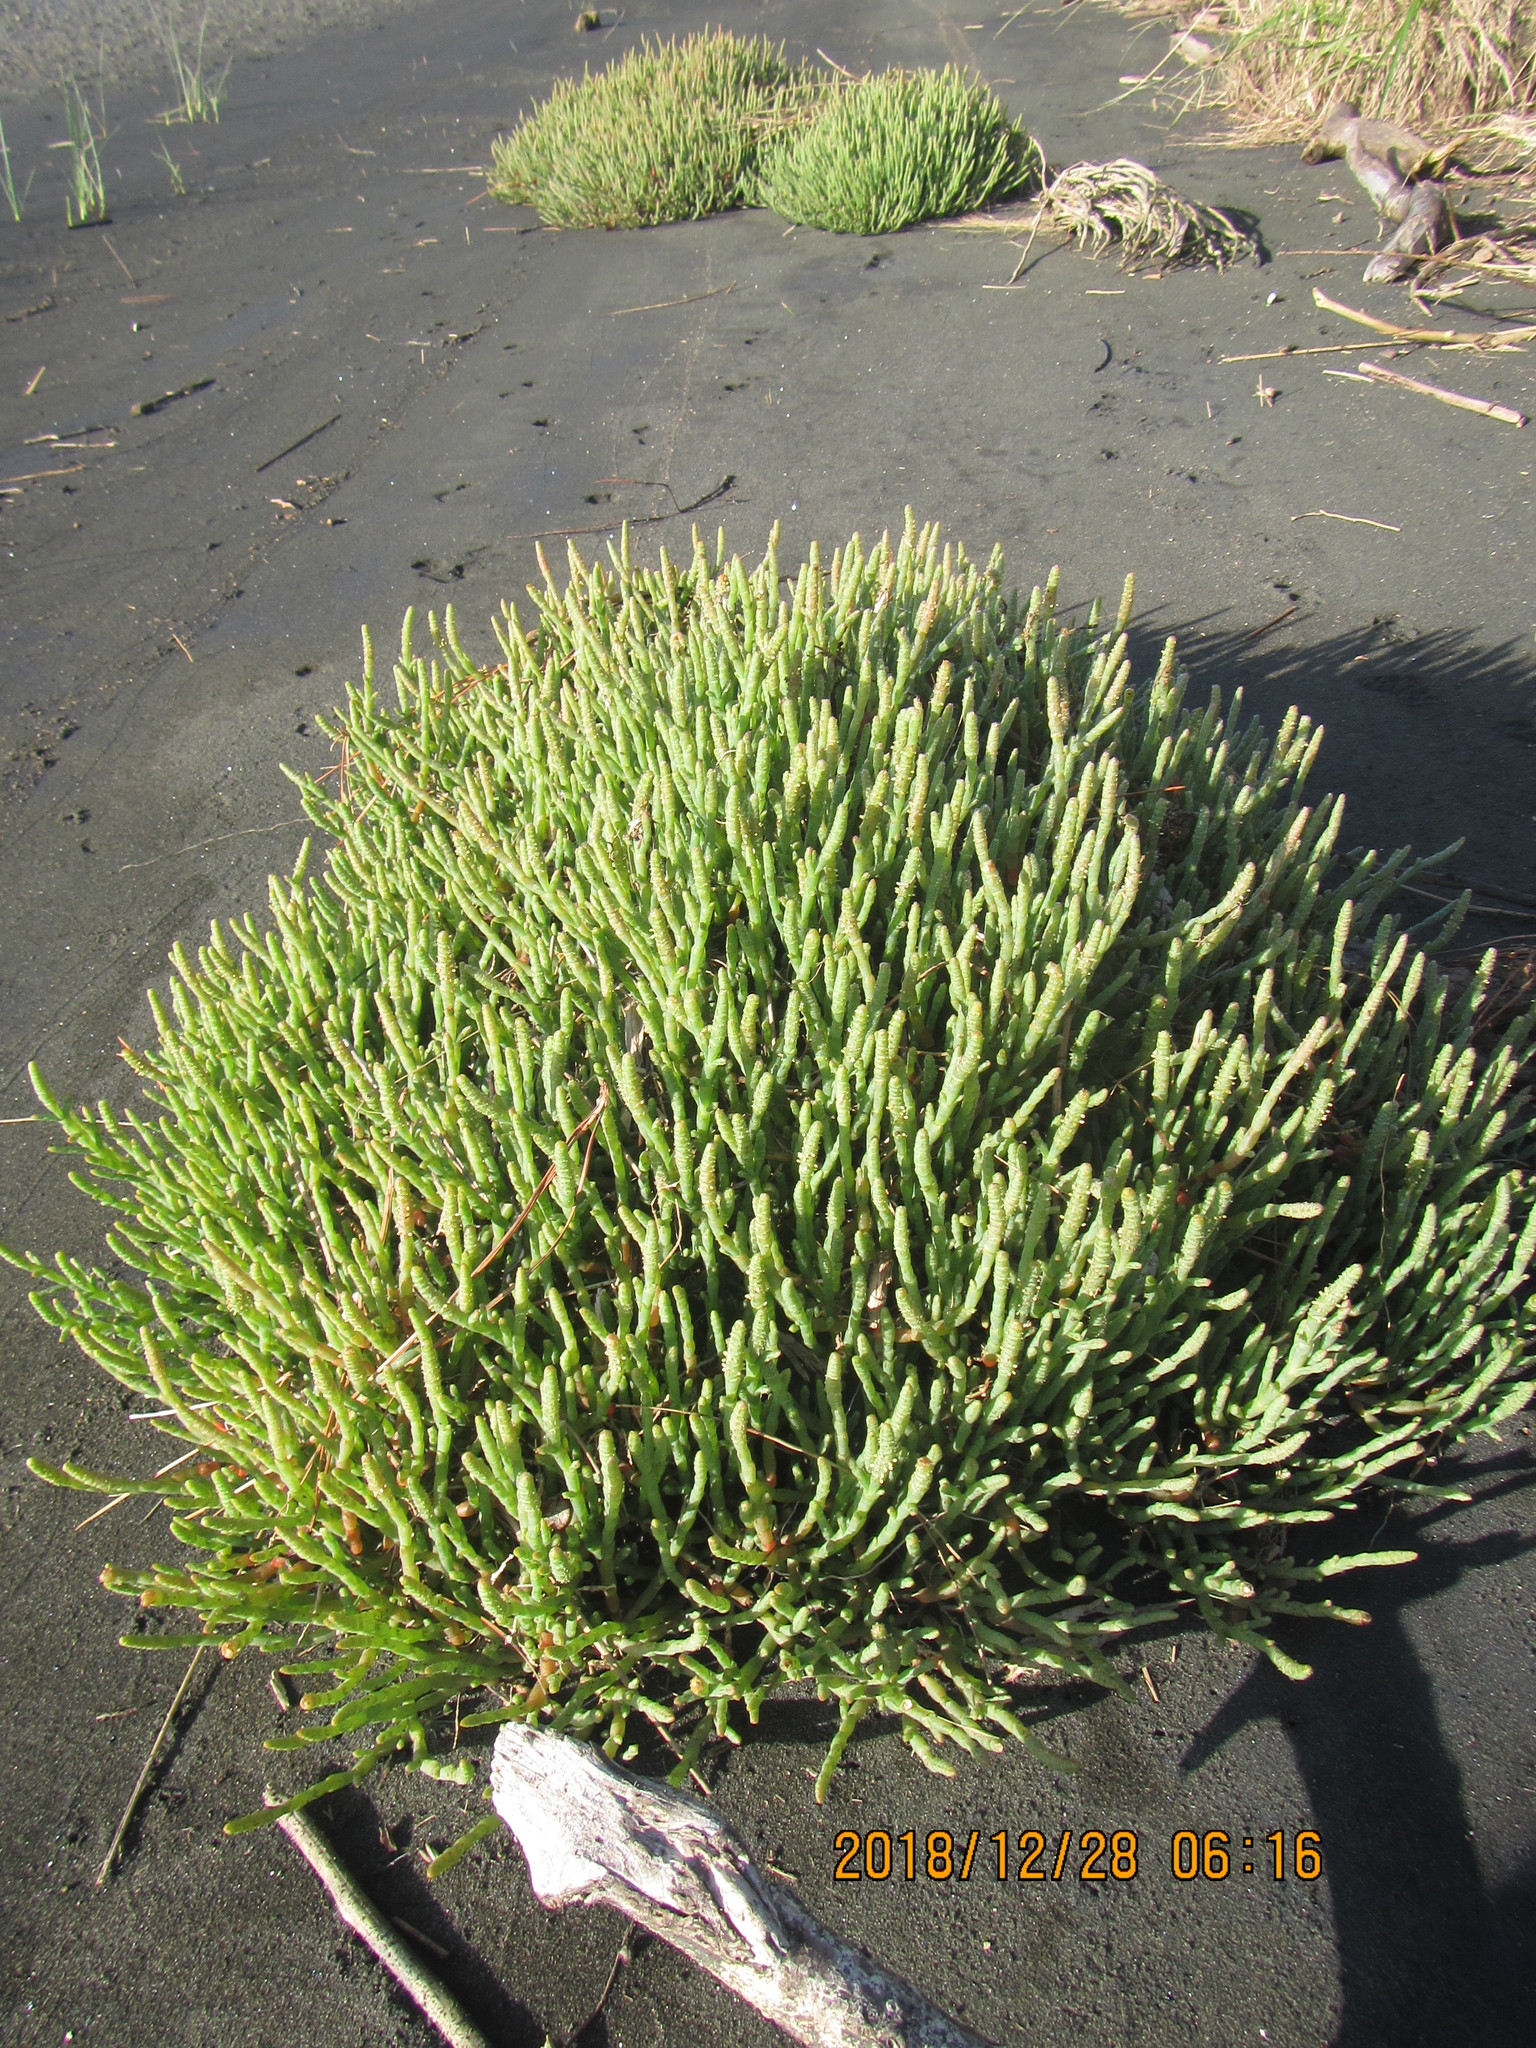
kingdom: Plantae
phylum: Tracheophyta
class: Magnoliopsida
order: Caryophyllales
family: Amaranthaceae
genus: Salicornia
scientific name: Salicornia quinqueflora
